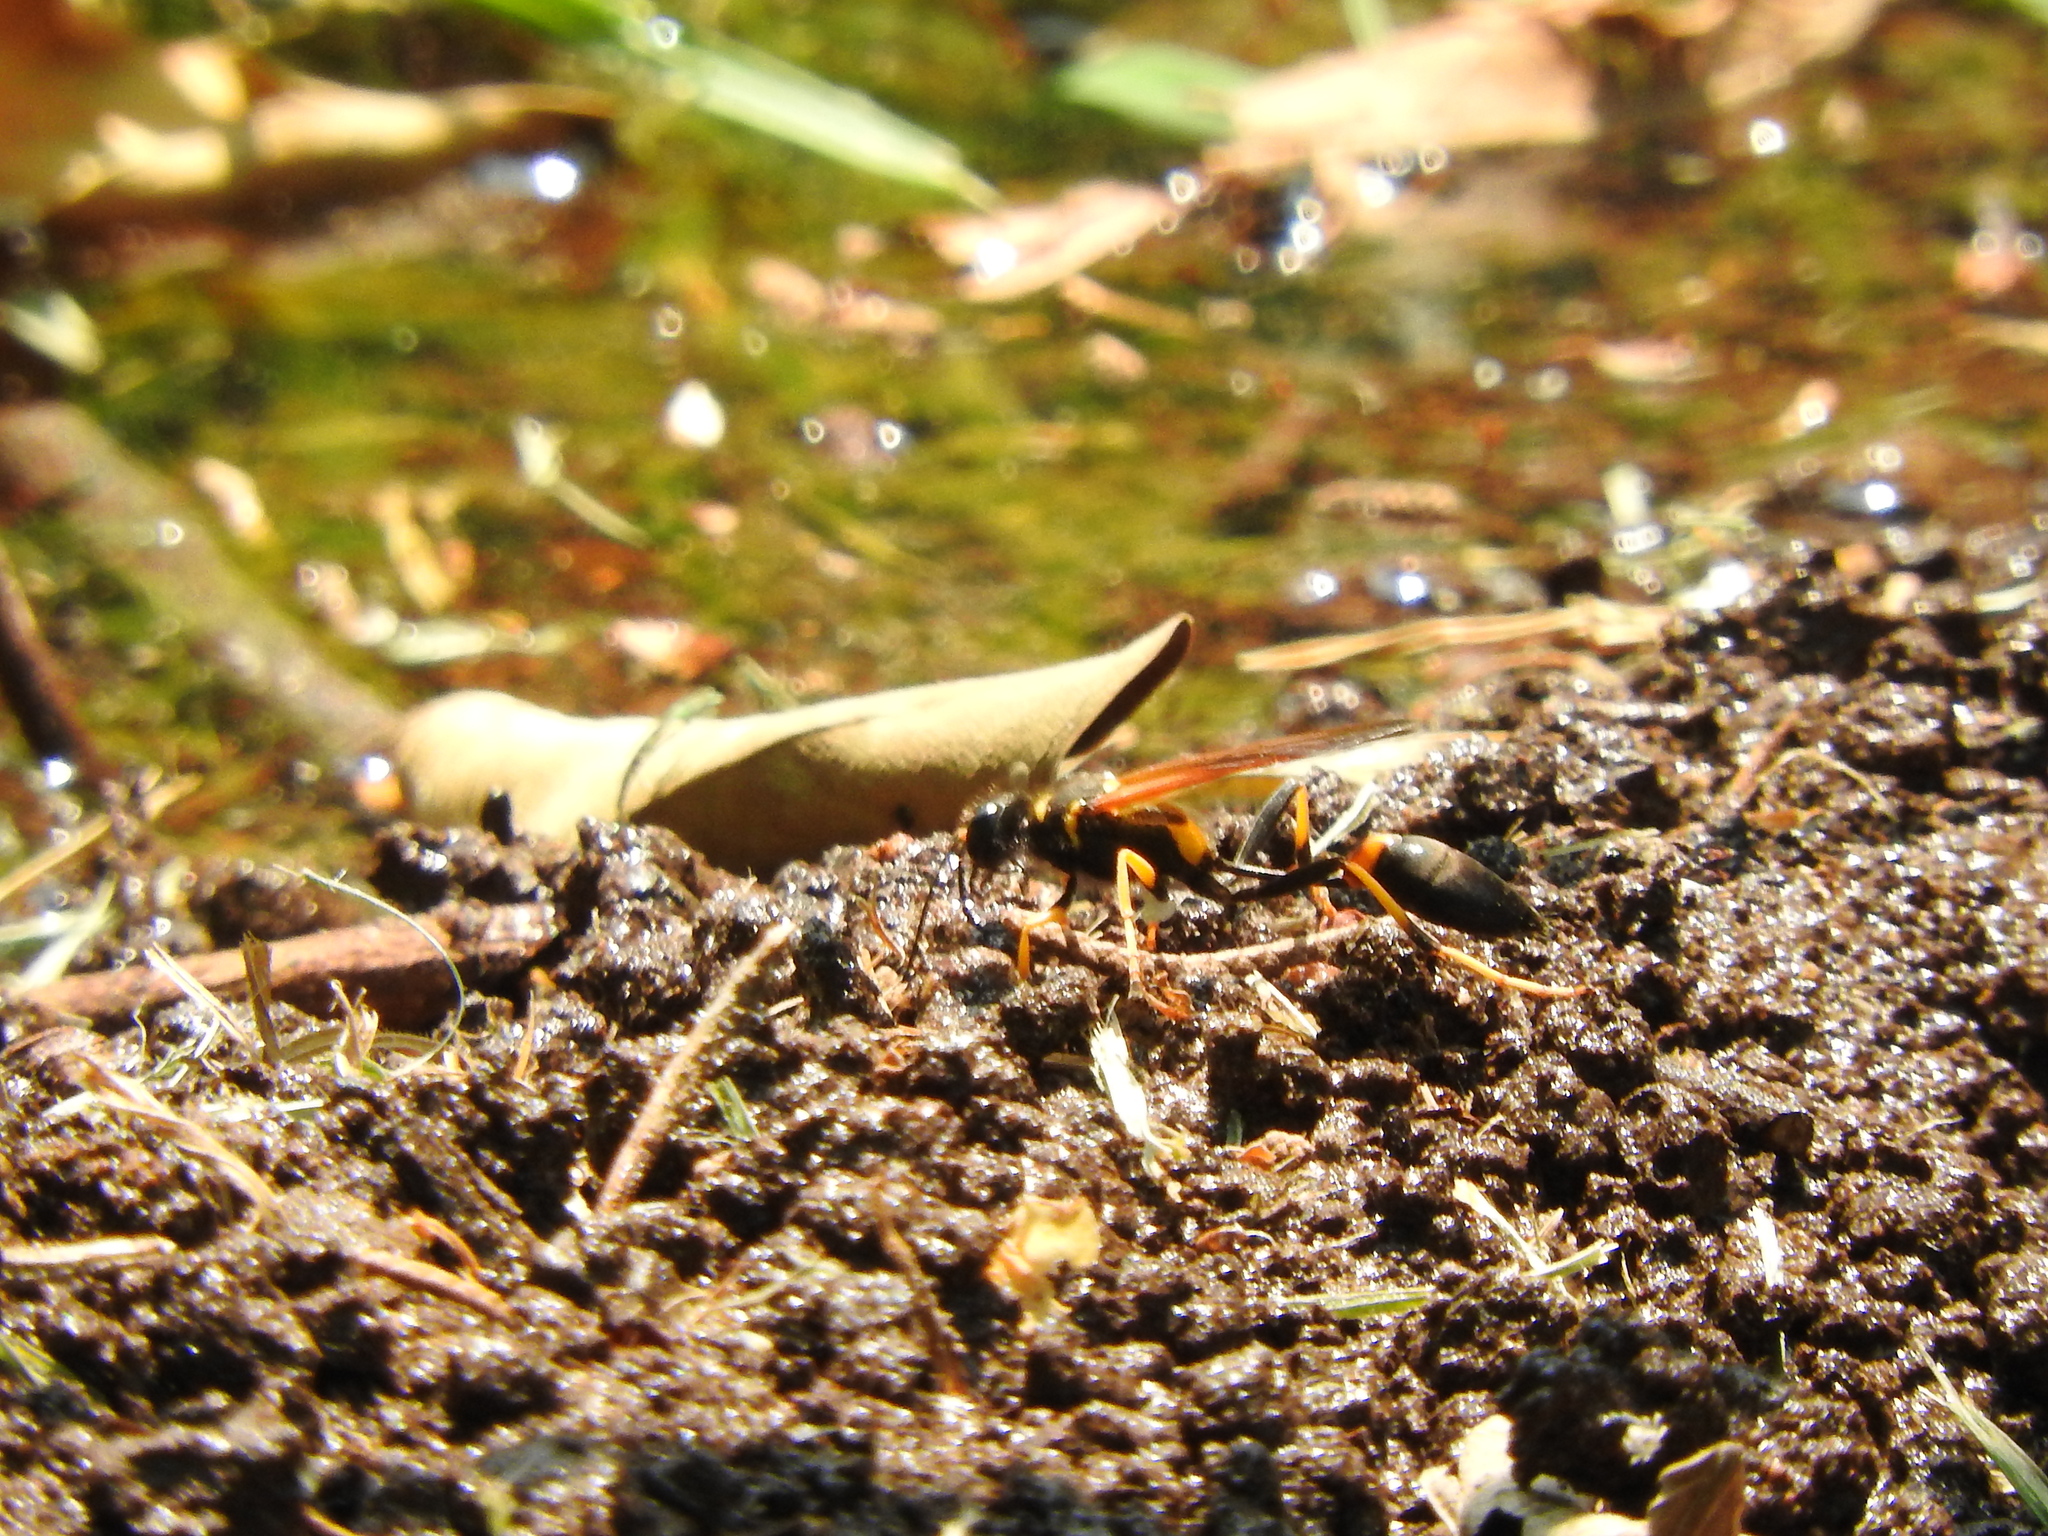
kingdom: Animalia
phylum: Arthropoda
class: Insecta
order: Hymenoptera
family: Sphecidae
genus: Sceliphron
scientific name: Sceliphron caementarium
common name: Mud dauber
